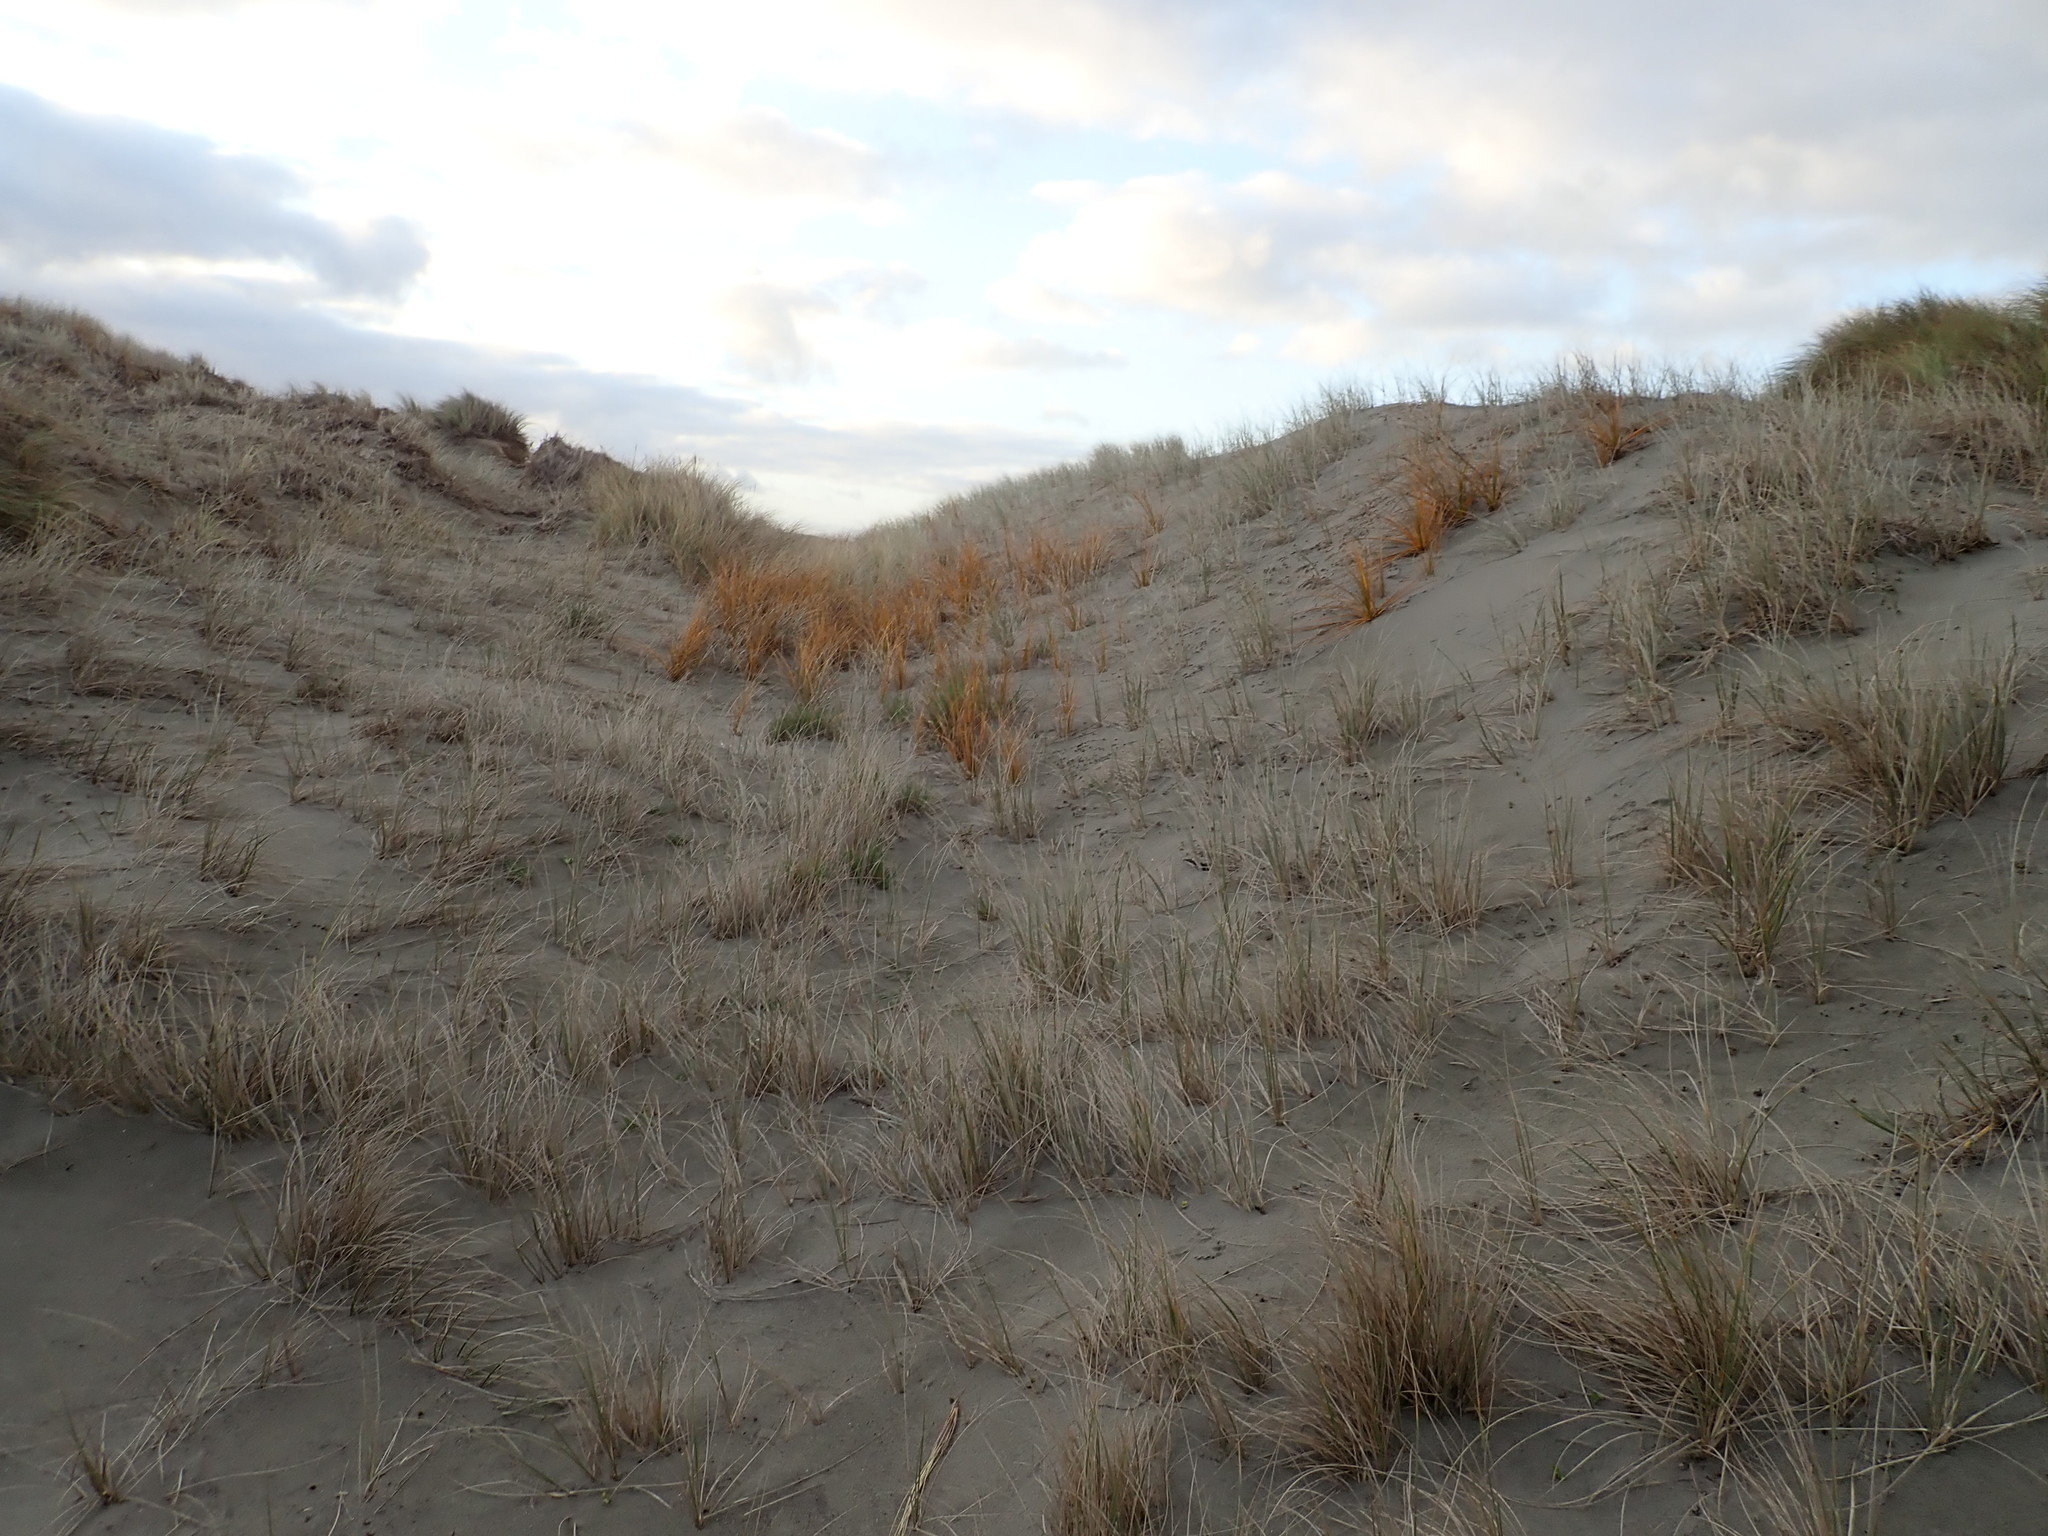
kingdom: Plantae
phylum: Tracheophyta
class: Liliopsida
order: Poales
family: Cyperaceae
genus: Ficinia
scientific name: Ficinia spiralis
